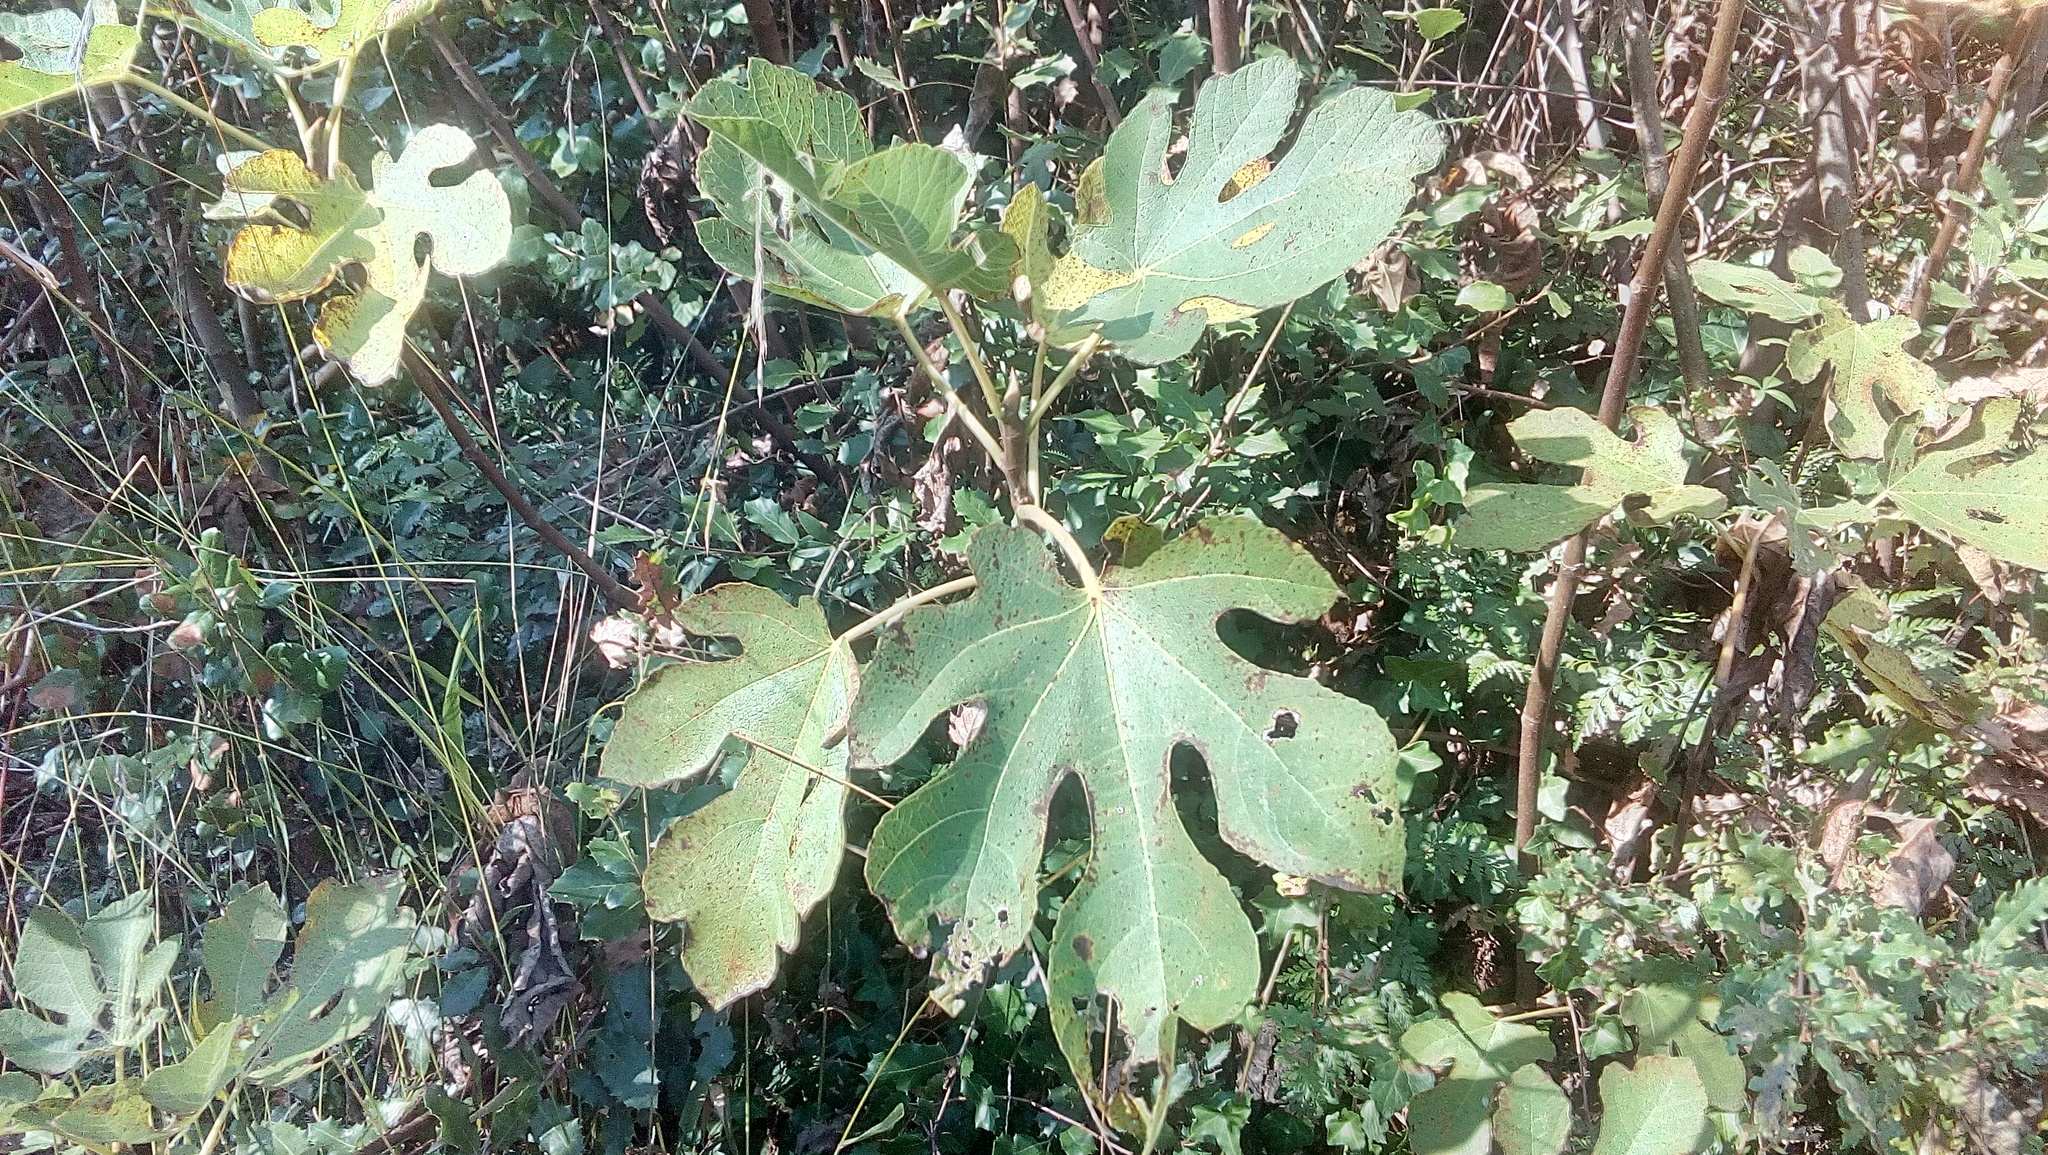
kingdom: Plantae
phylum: Tracheophyta
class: Magnoliopsida
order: Rosales
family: Moraceae
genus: Ficus
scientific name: Ficus carica
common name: Fig
